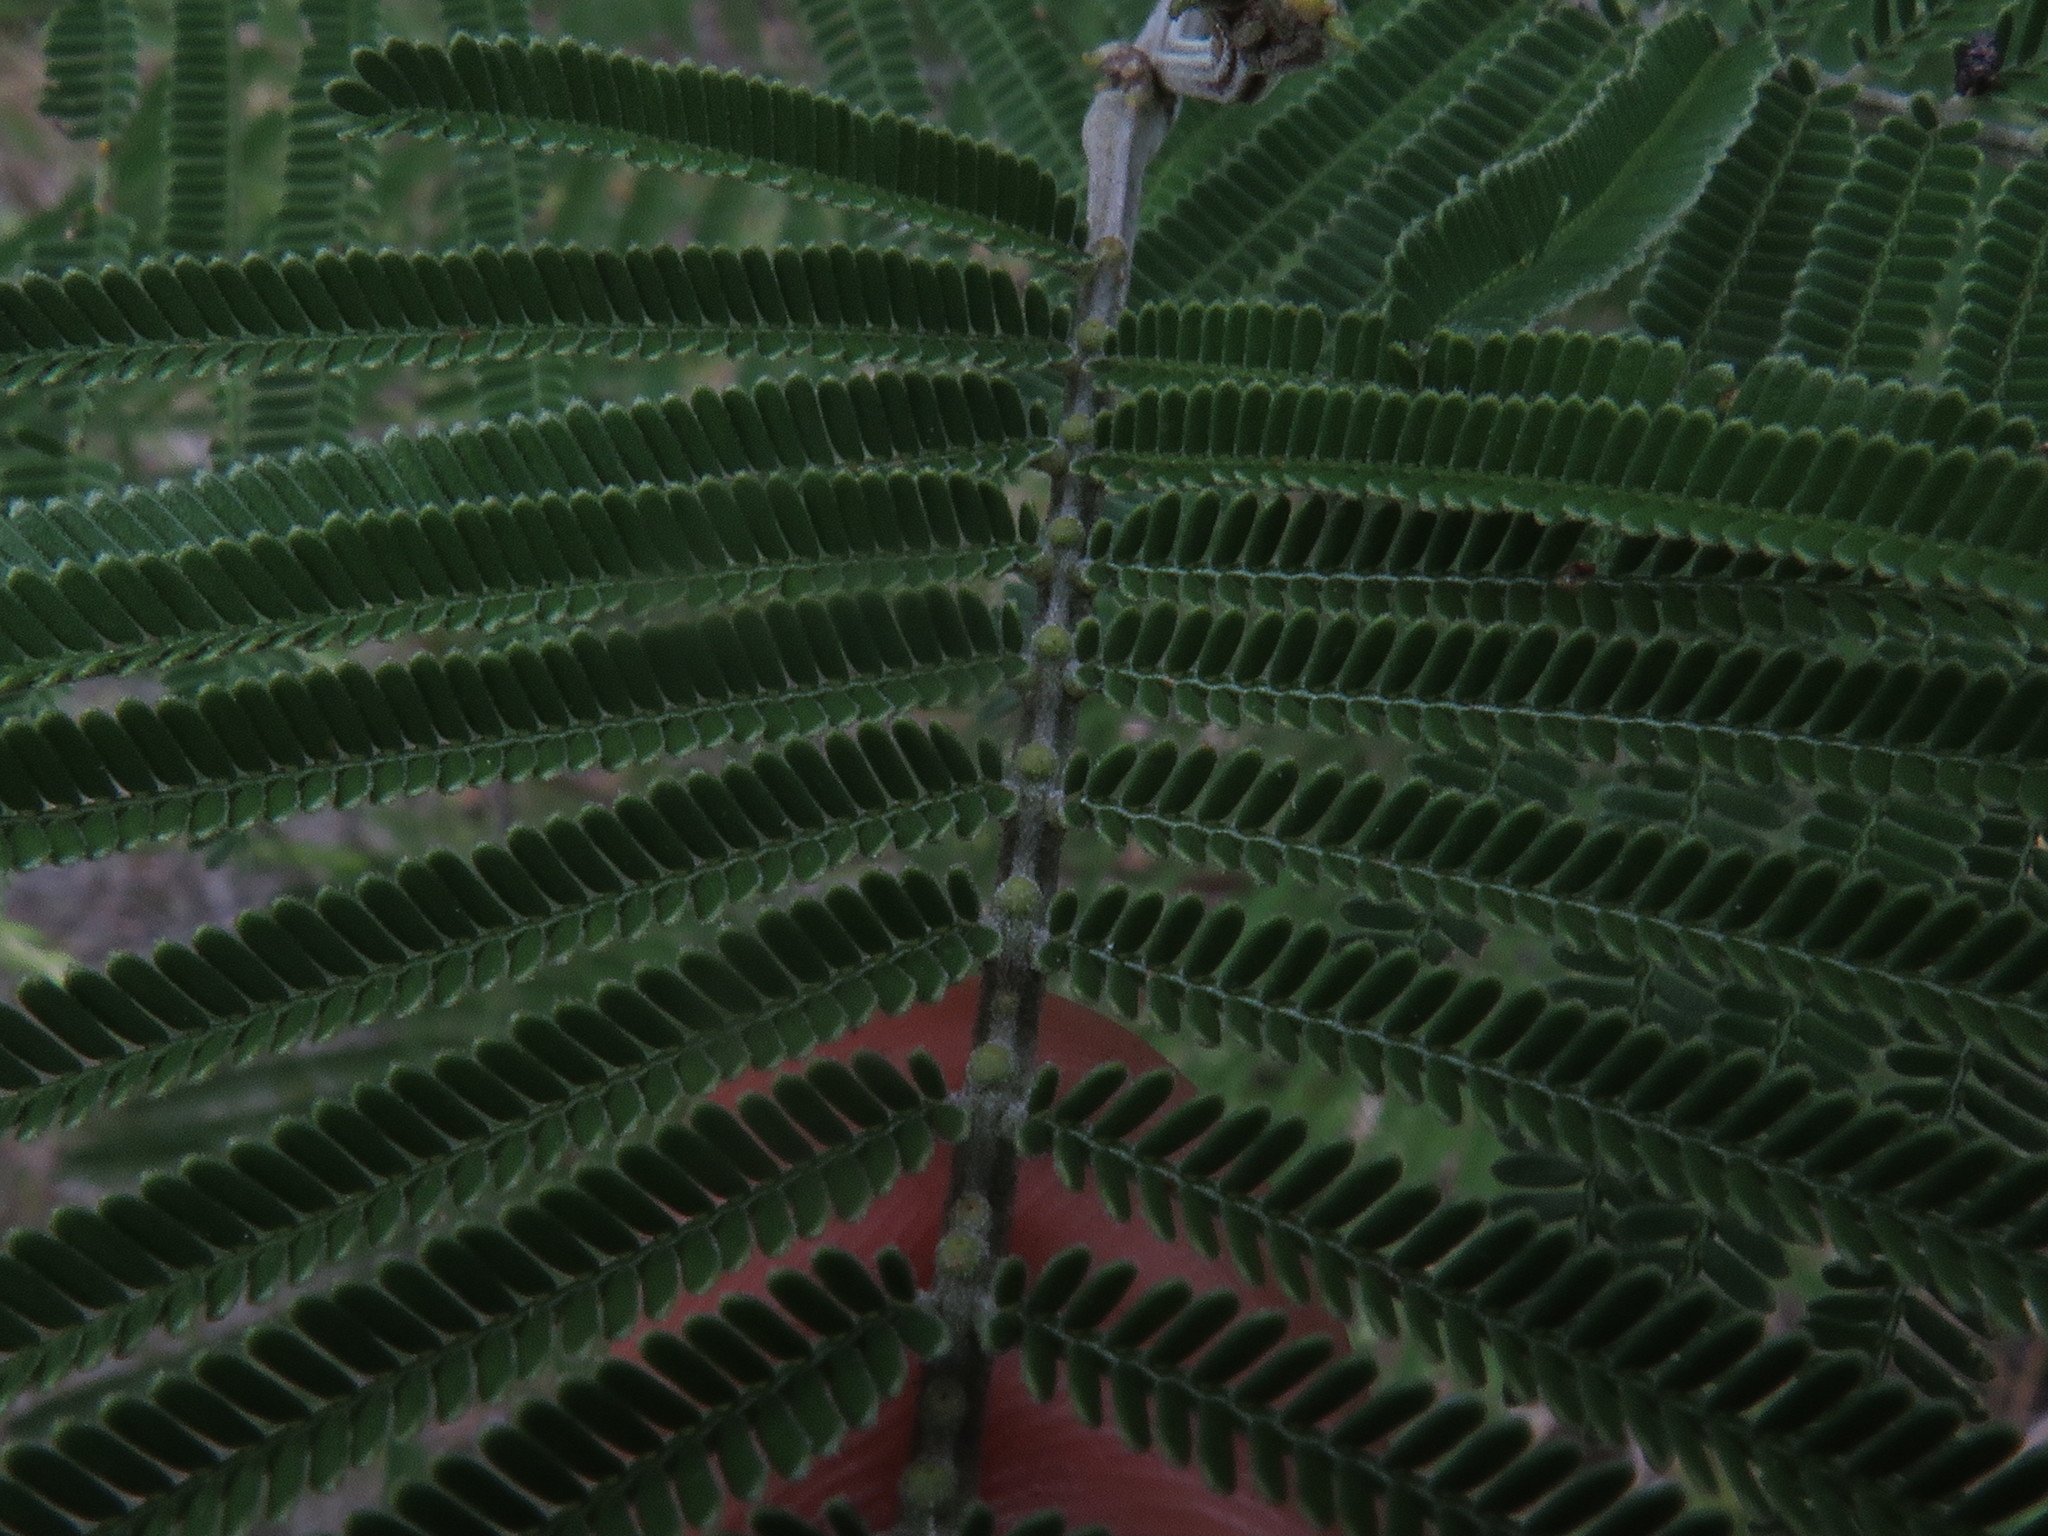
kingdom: Plantae
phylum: Tracheophyta
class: Magnoliopsida
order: Fabales
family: Fabaceae
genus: Acacia
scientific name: Acacia mearnsii
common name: Black wattle
